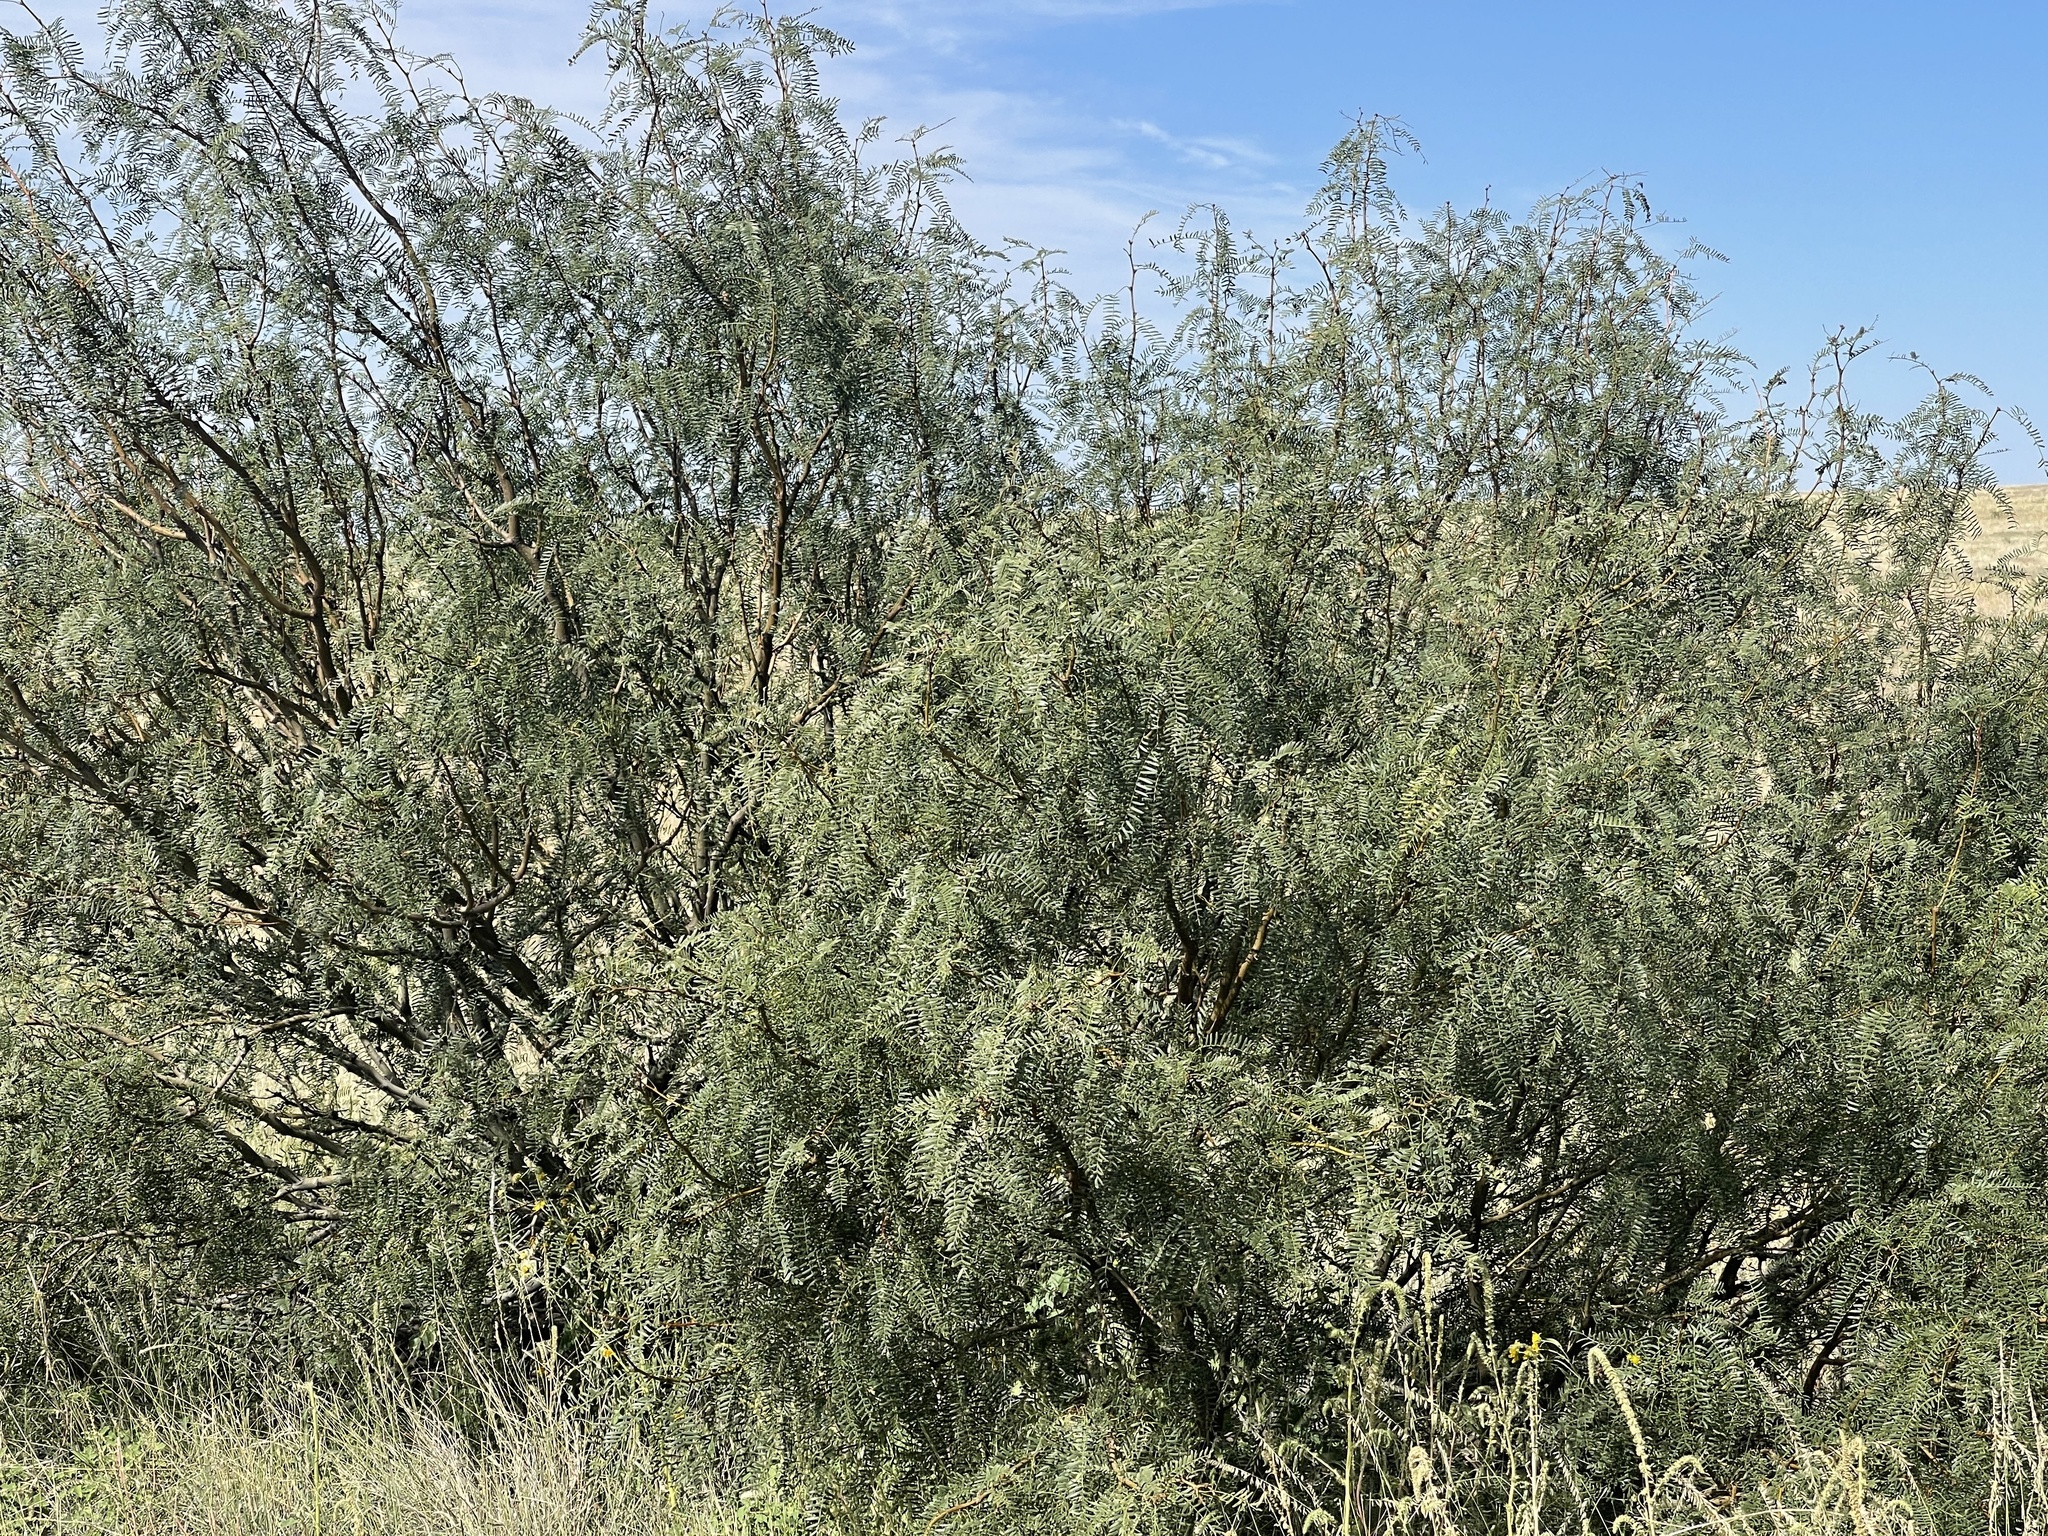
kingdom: Plantae
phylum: Tracheophyta
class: Magnoliopsida
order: Fabales
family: Fabaceae
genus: Prosopis
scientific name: Prosopis glandulosa
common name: Honey mesquite
